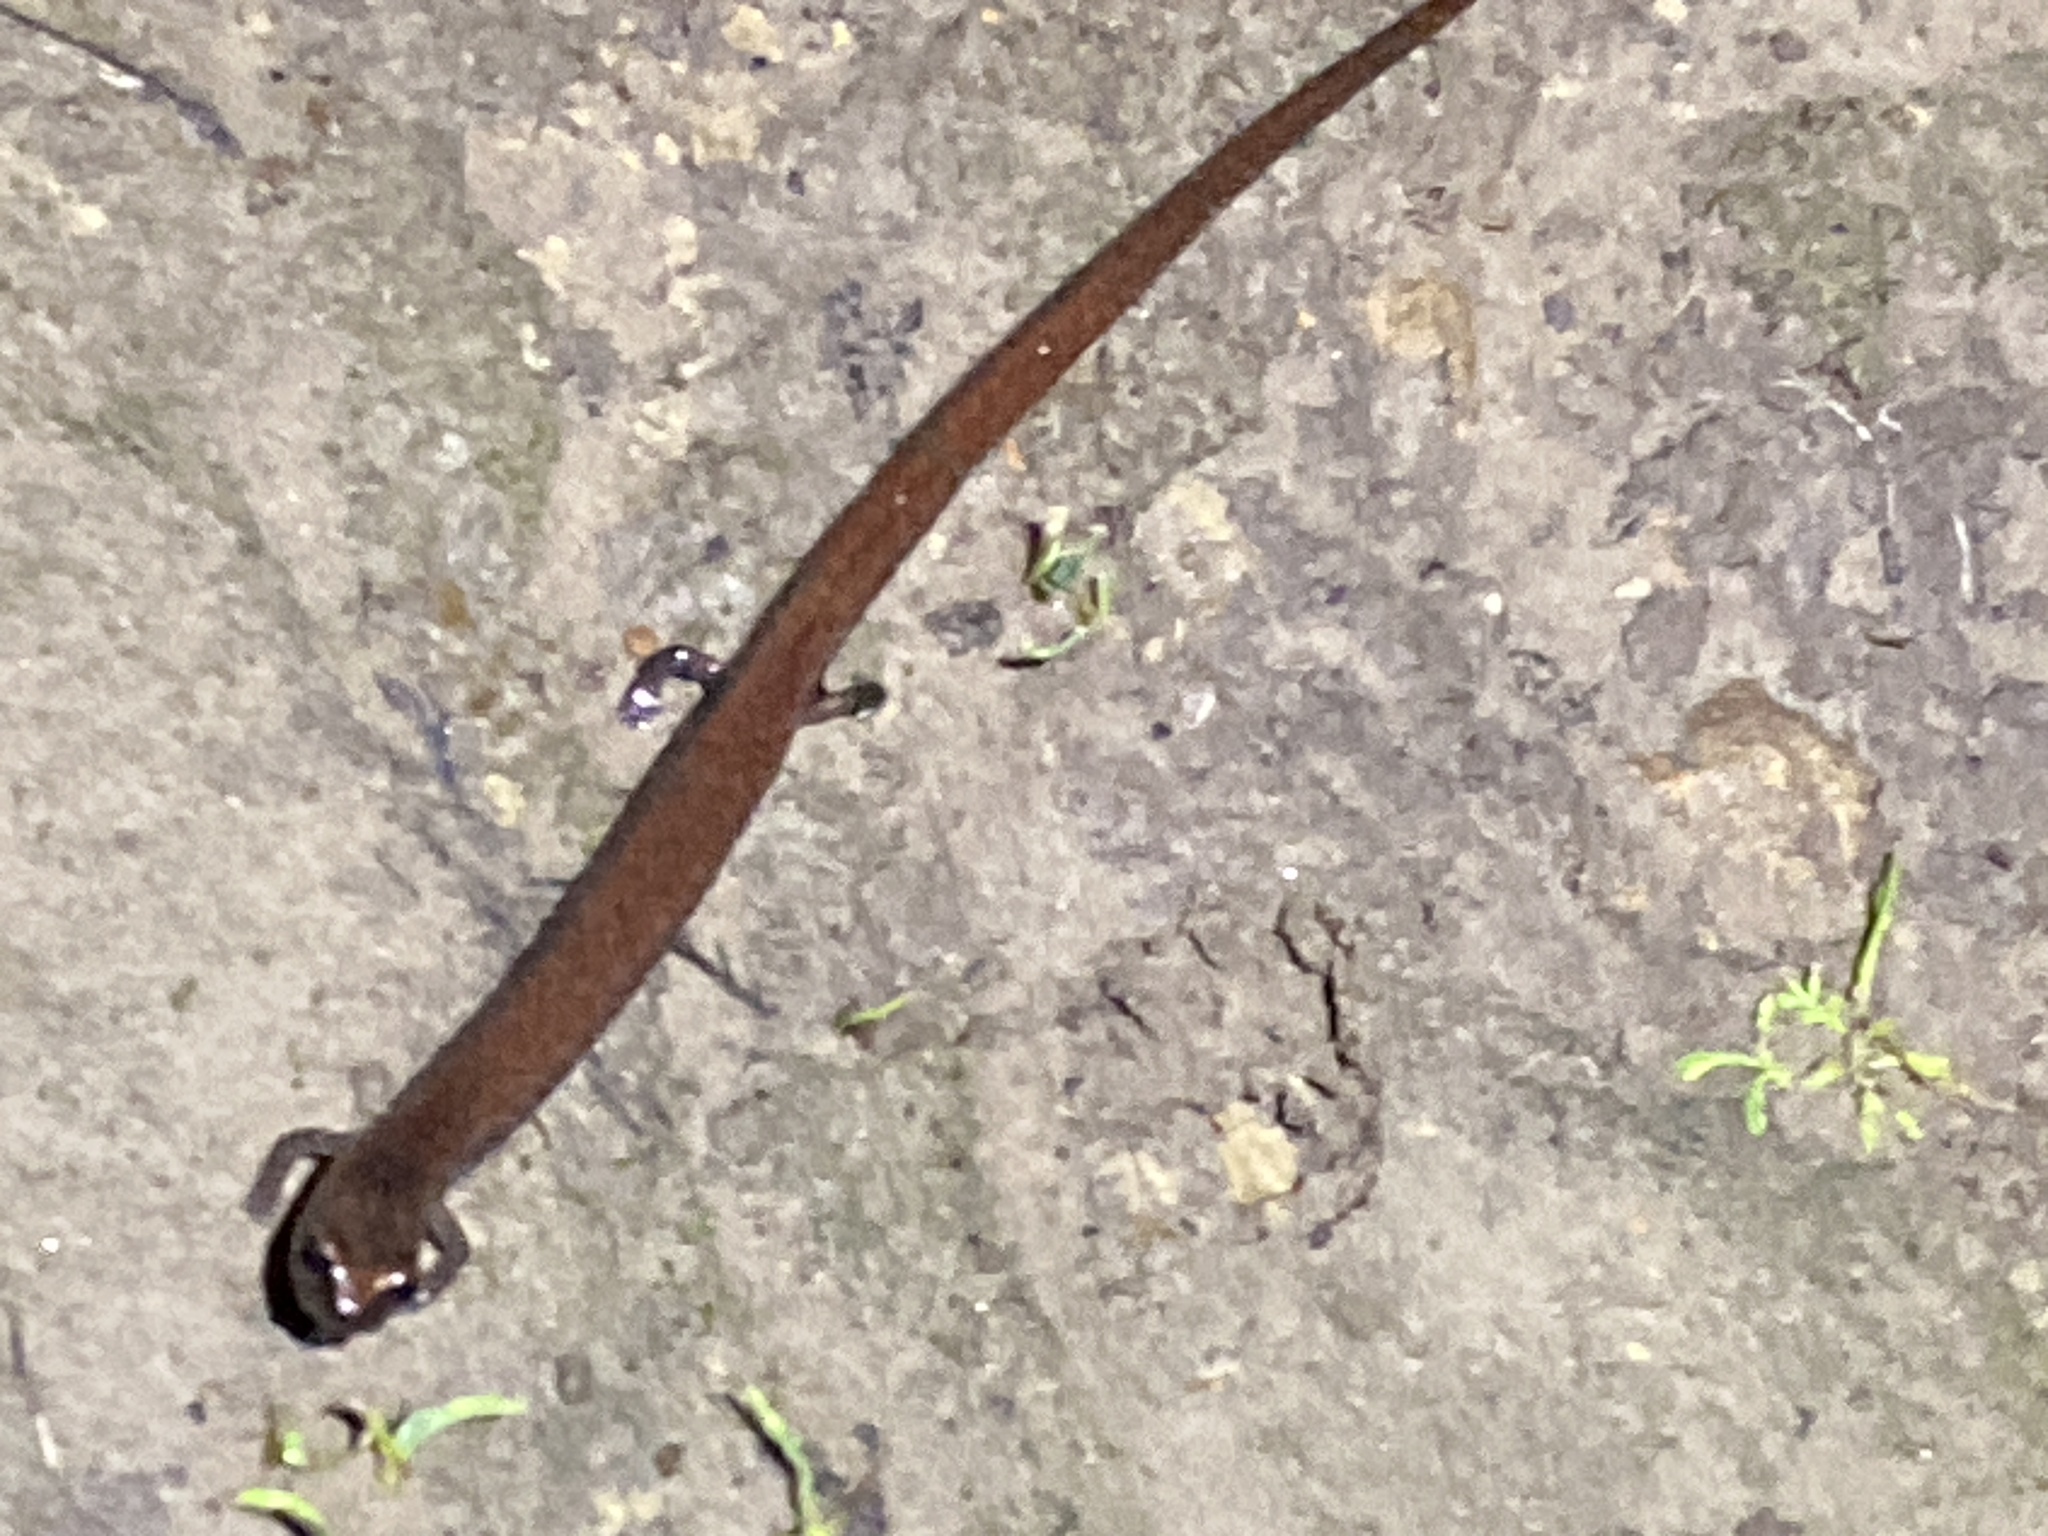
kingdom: Animalia
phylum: Chordata
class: Amphibia
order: Caudata
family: Plethodontidae
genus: Batrachoseps
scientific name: Batrachoseps attenuatus
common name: California slender salamander
